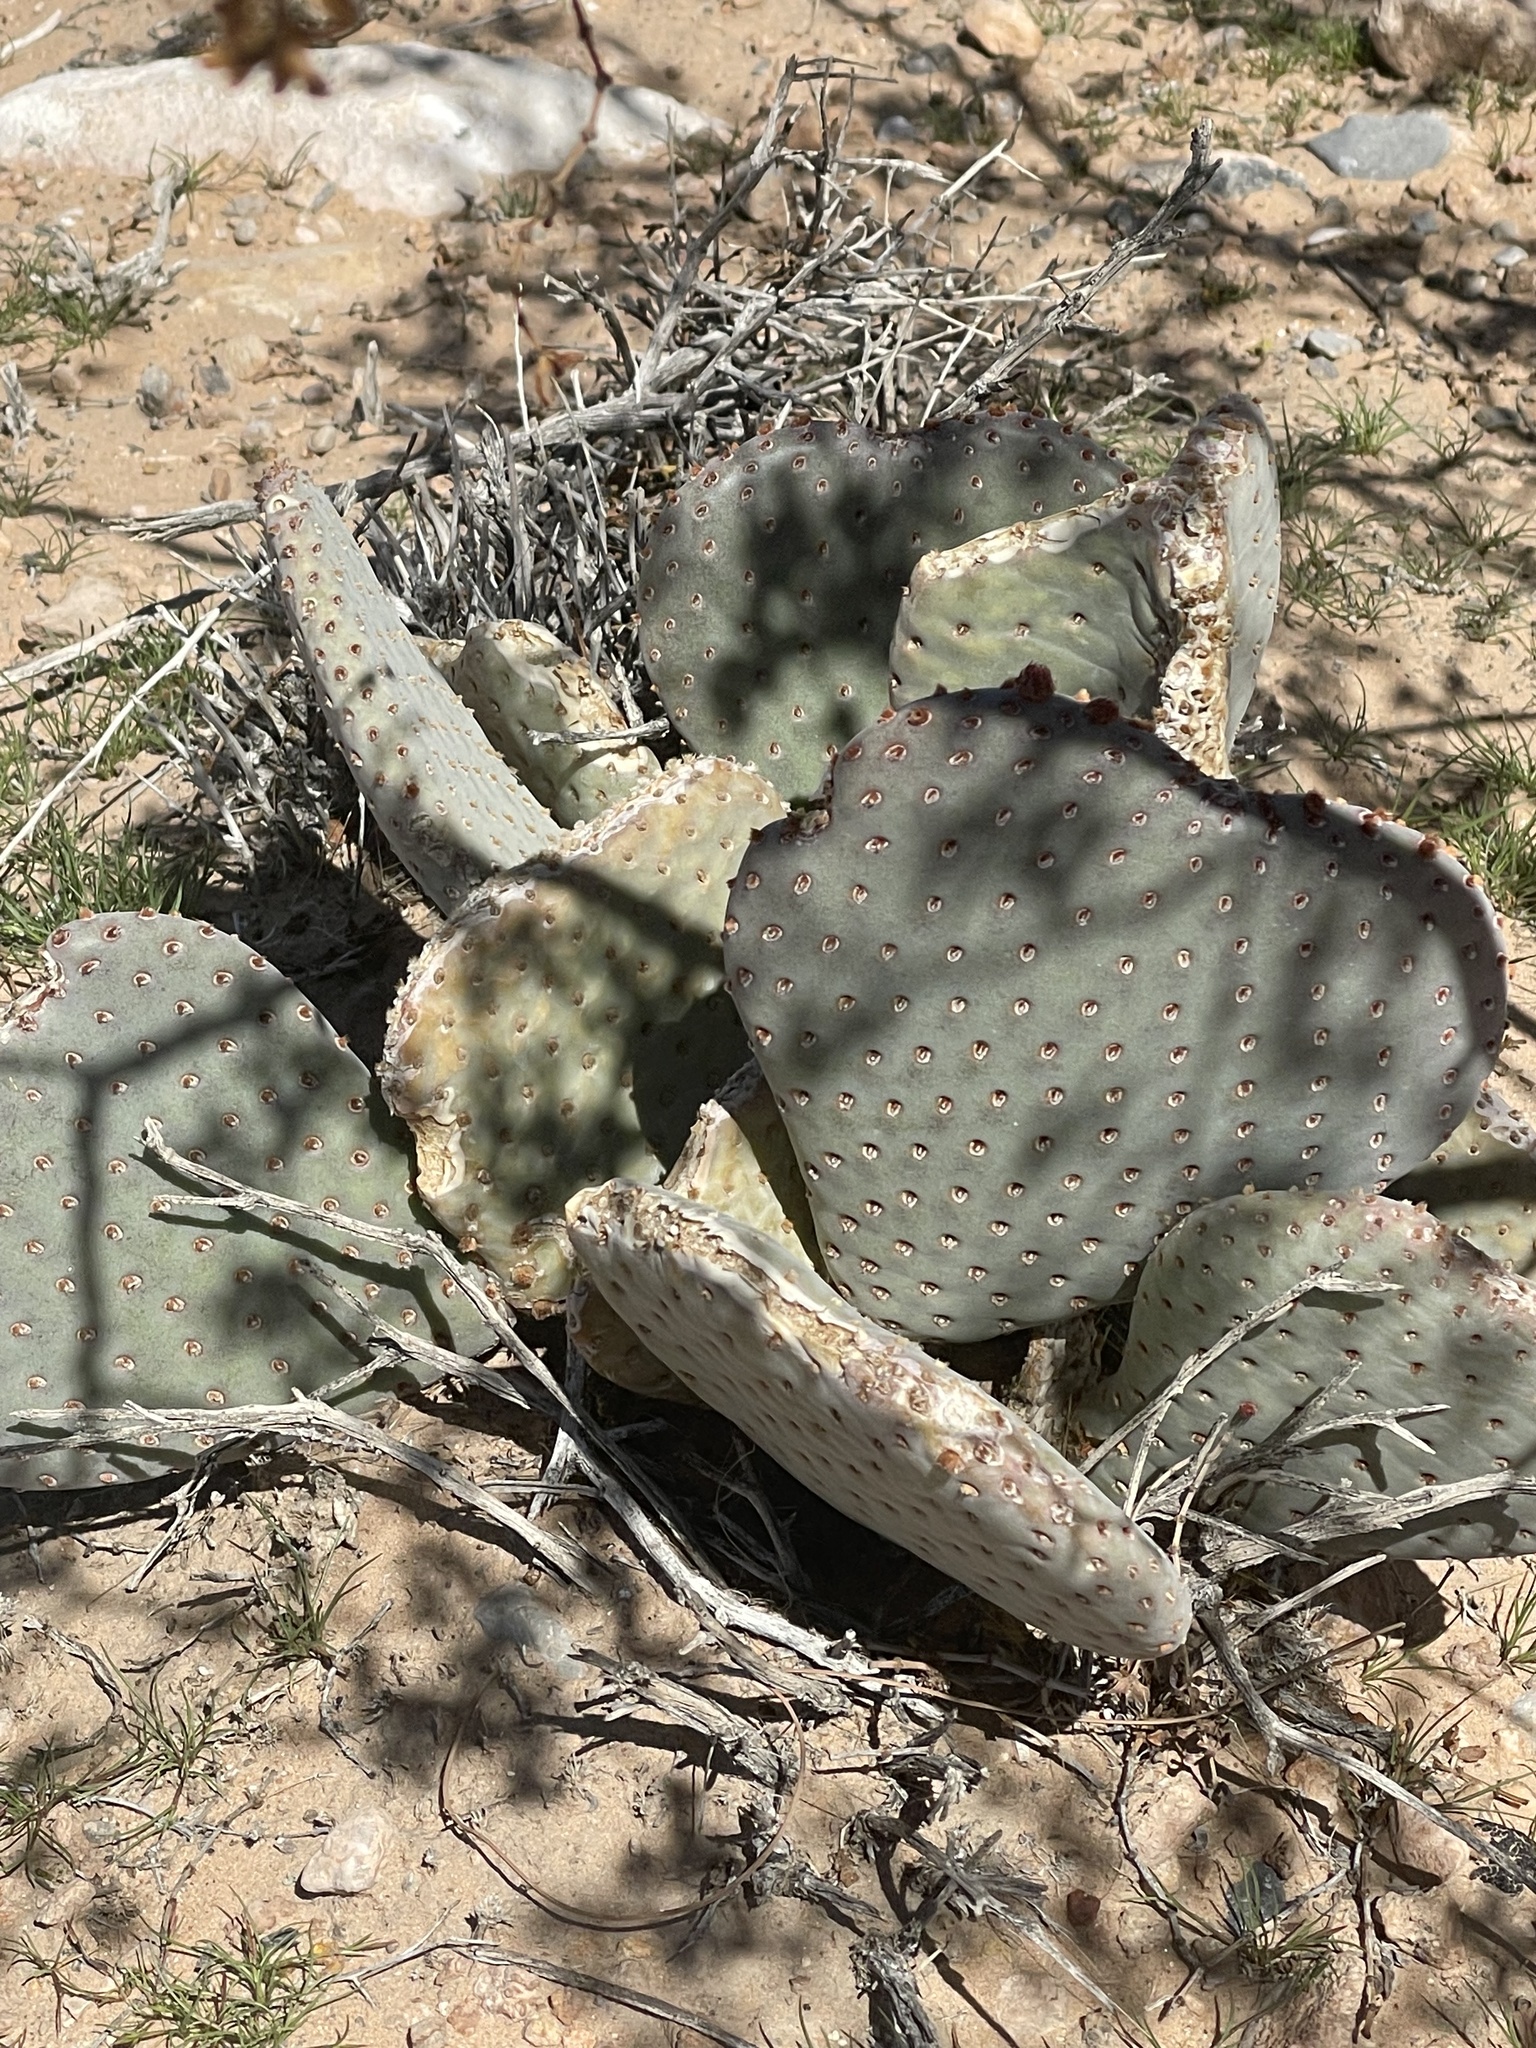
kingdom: Plantae
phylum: Tracheophyta
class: Magnoliopsida
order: Caryophyllales
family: Cactaceae
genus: Opuntia
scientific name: Opuntia basilaris
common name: Beavertail prickly-pear
